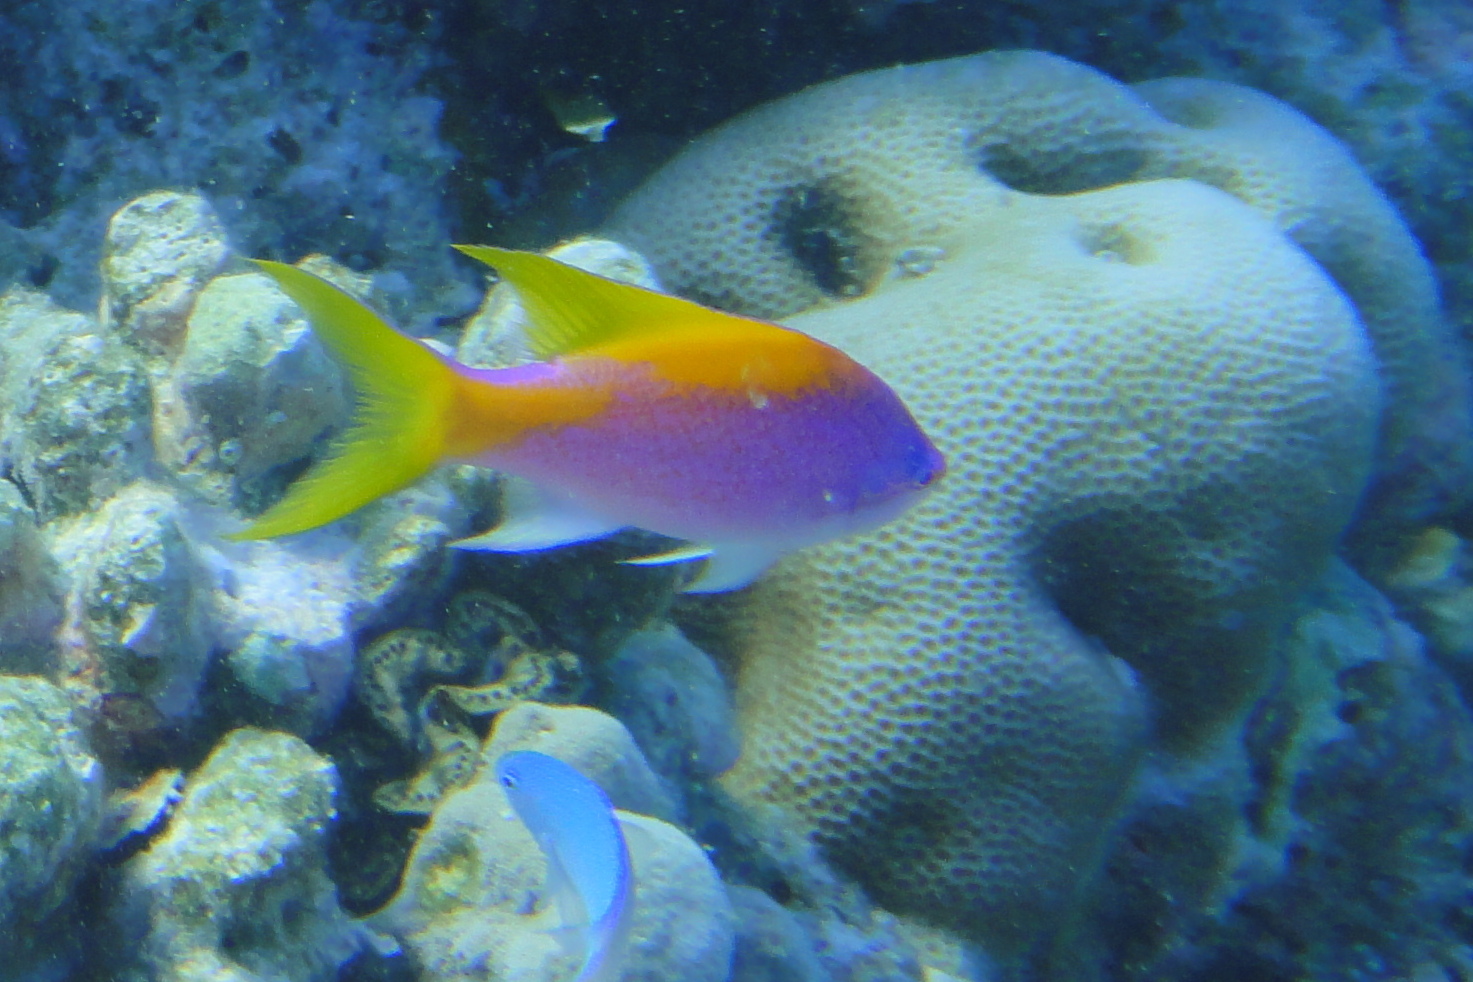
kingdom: Animalia
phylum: Chordata
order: Perciformes
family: Serranidae
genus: Pseudanthias
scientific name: Pseudanthias evansi
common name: Goldback anthias
